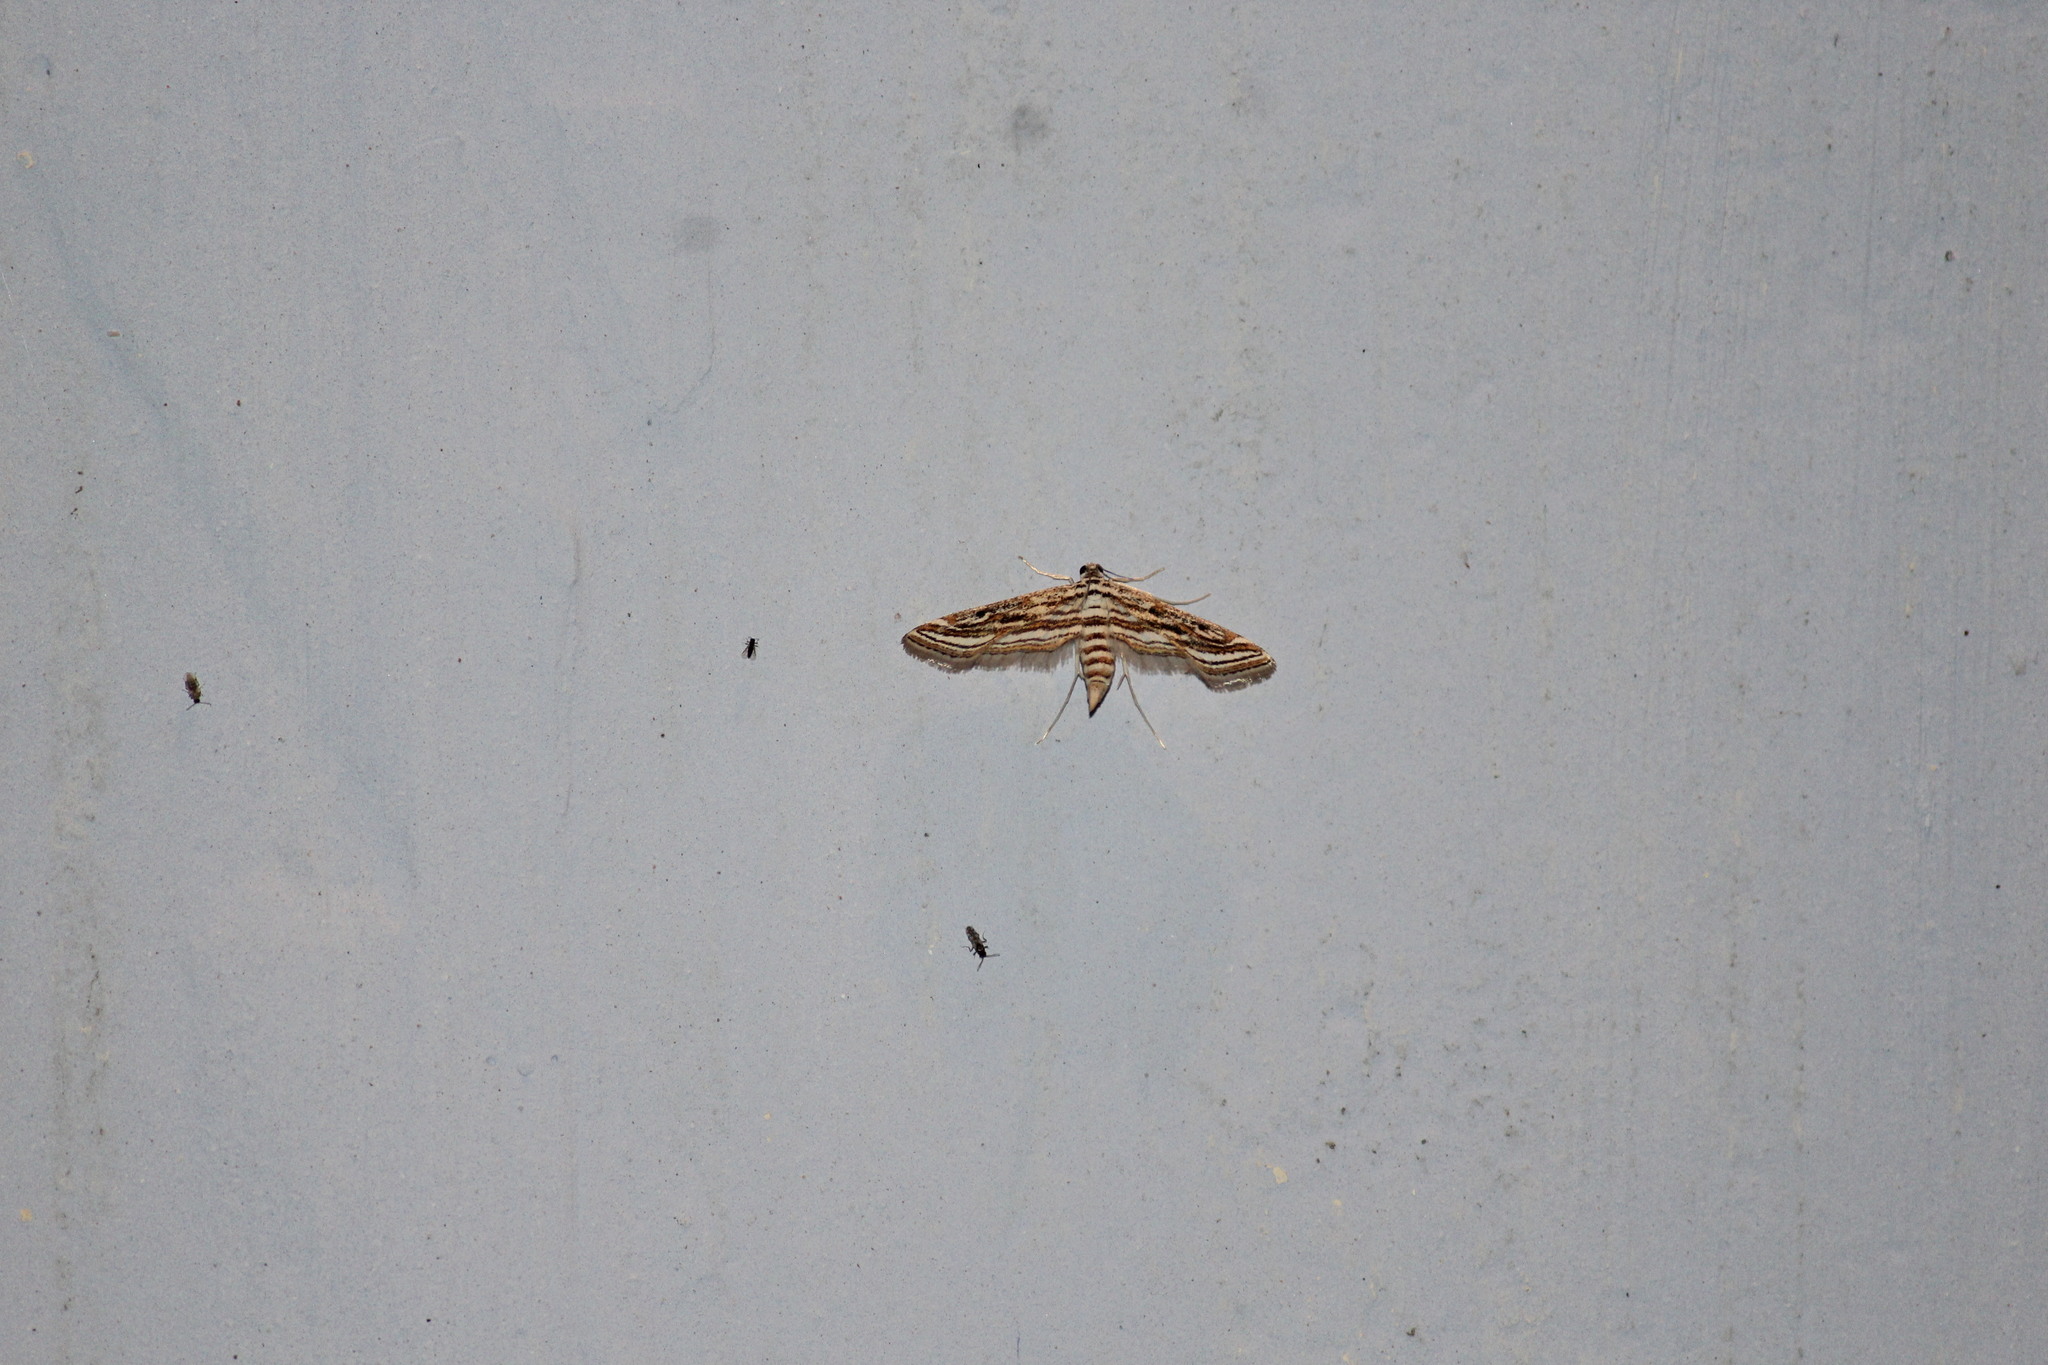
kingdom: Animalia
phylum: Arthropoda
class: Insecta
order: Lepidoptera
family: Crambidae
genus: Parapoynx
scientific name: Parapoynx fluctuosalis
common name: Moth
